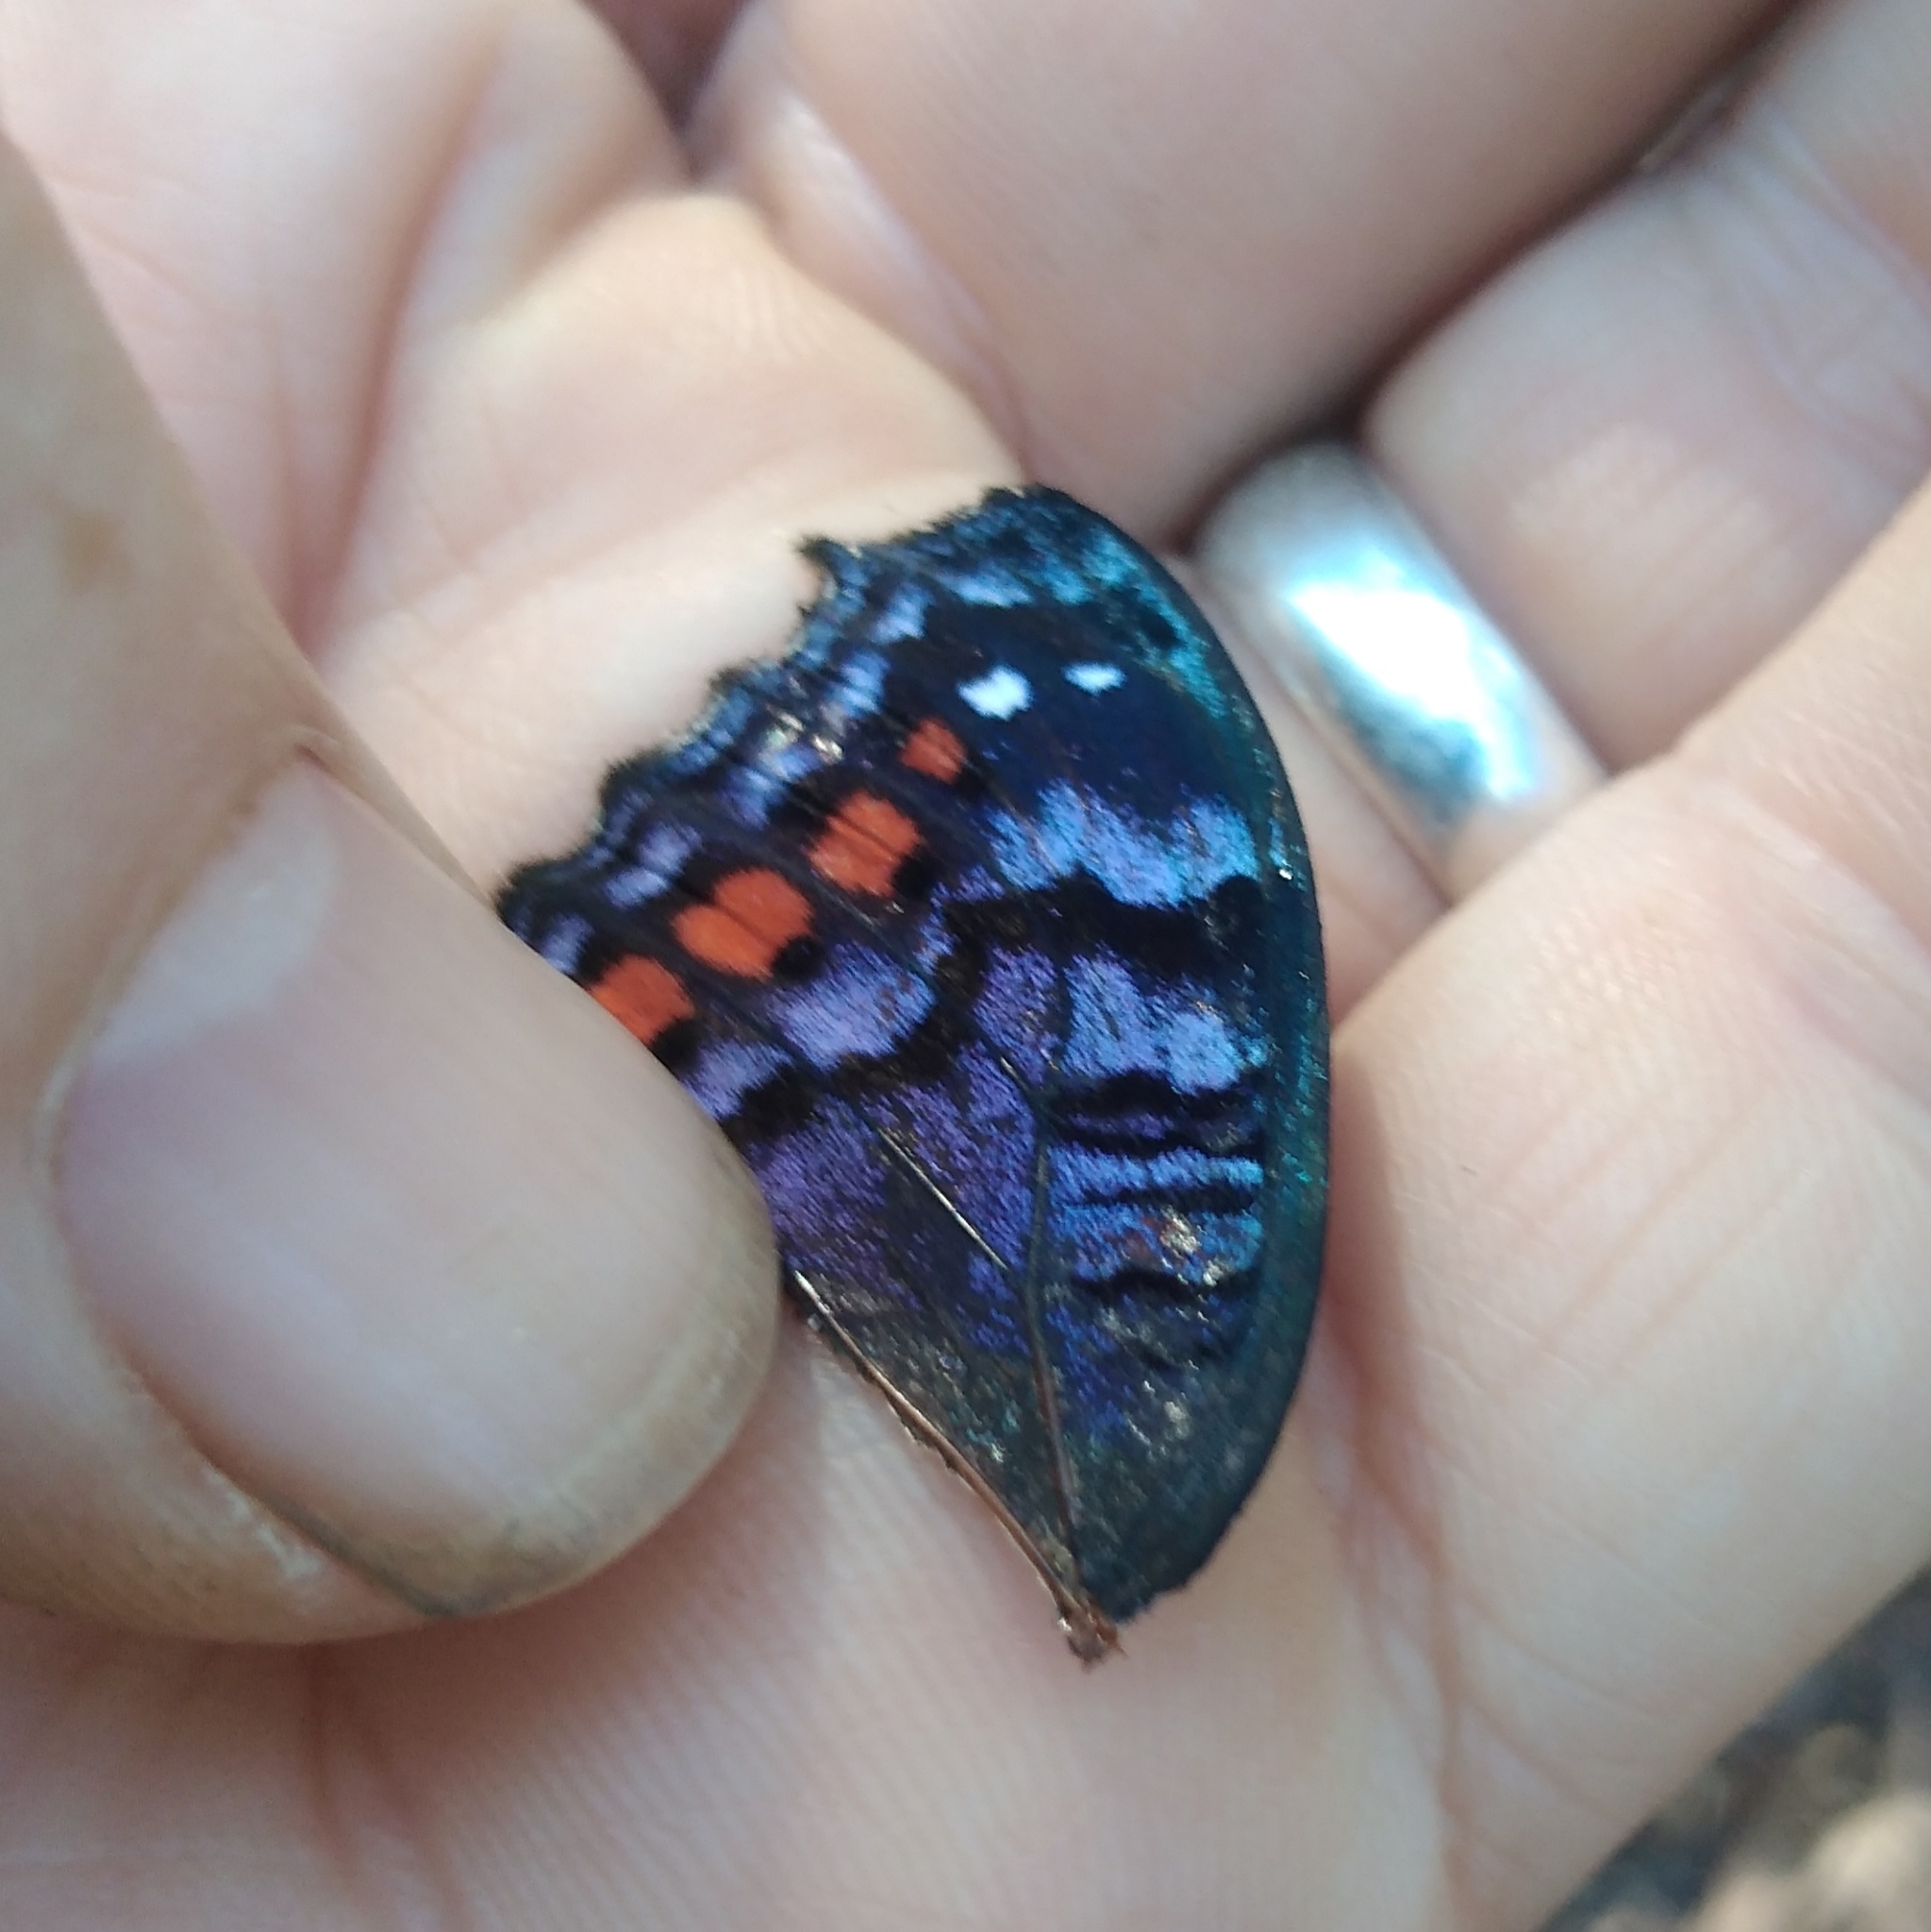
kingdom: Animalia
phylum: Arthropoda
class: Insecta
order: Lepidoptera
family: Nymphalidae
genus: Precis
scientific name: Precis octavia
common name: Gaudy commodore
